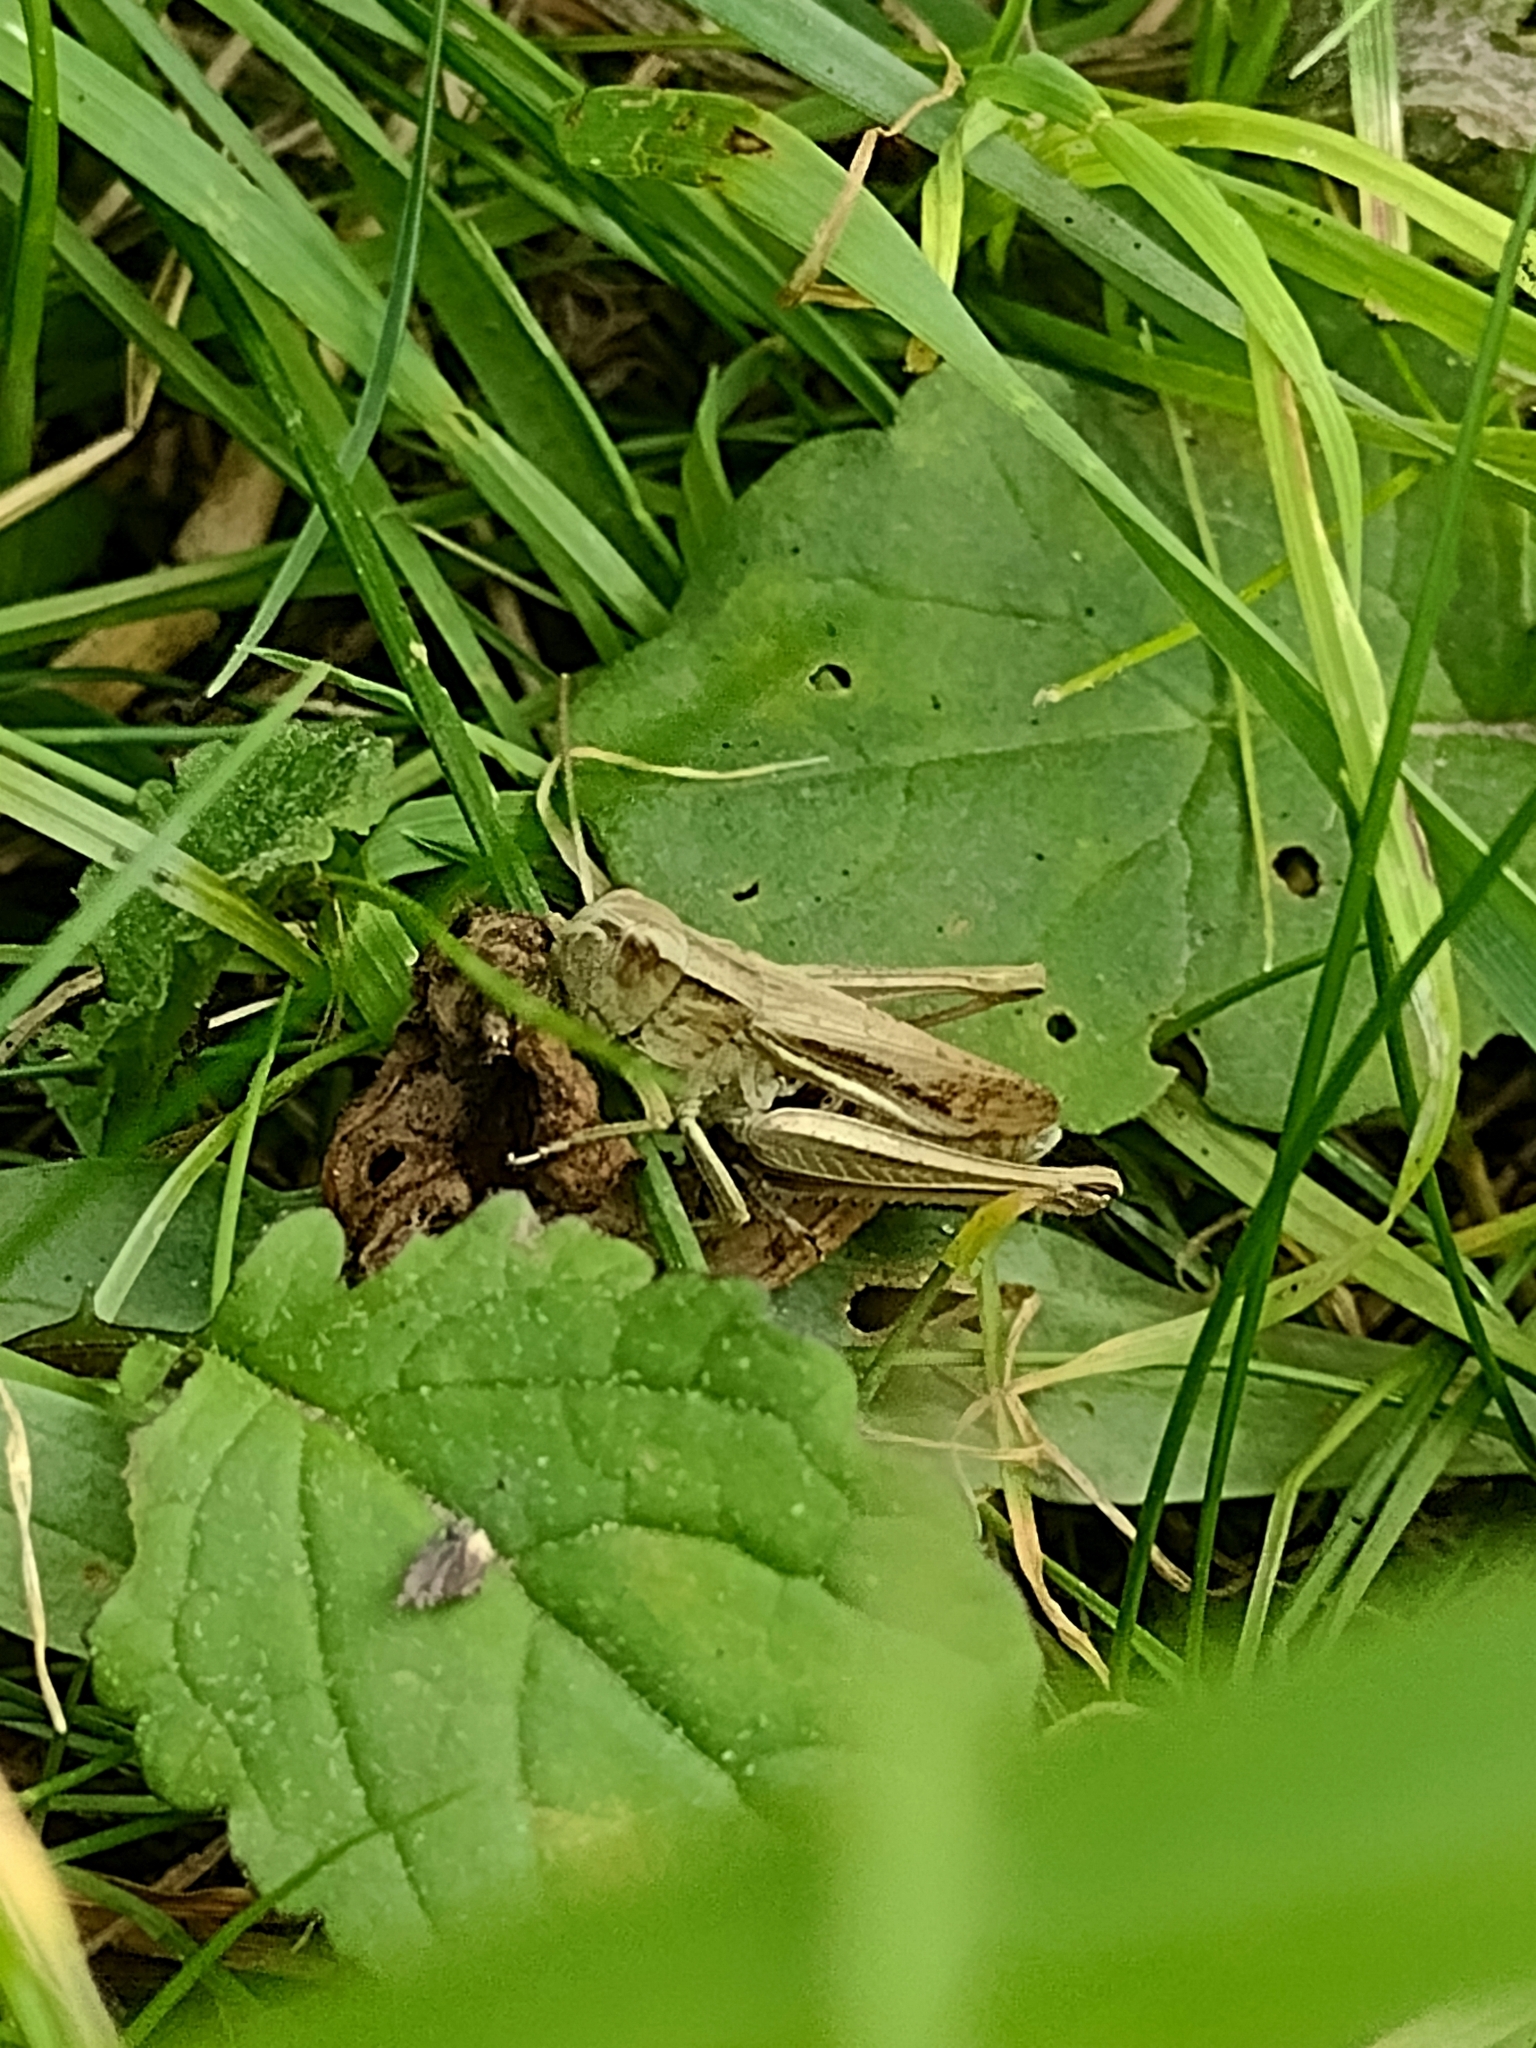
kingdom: Animalia
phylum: Arthropoda
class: Insecta
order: Orthoptera
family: Acrididae
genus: Chorthippus
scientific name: Chorthippus albomarginatus
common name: Lesser marsh grasshopper
